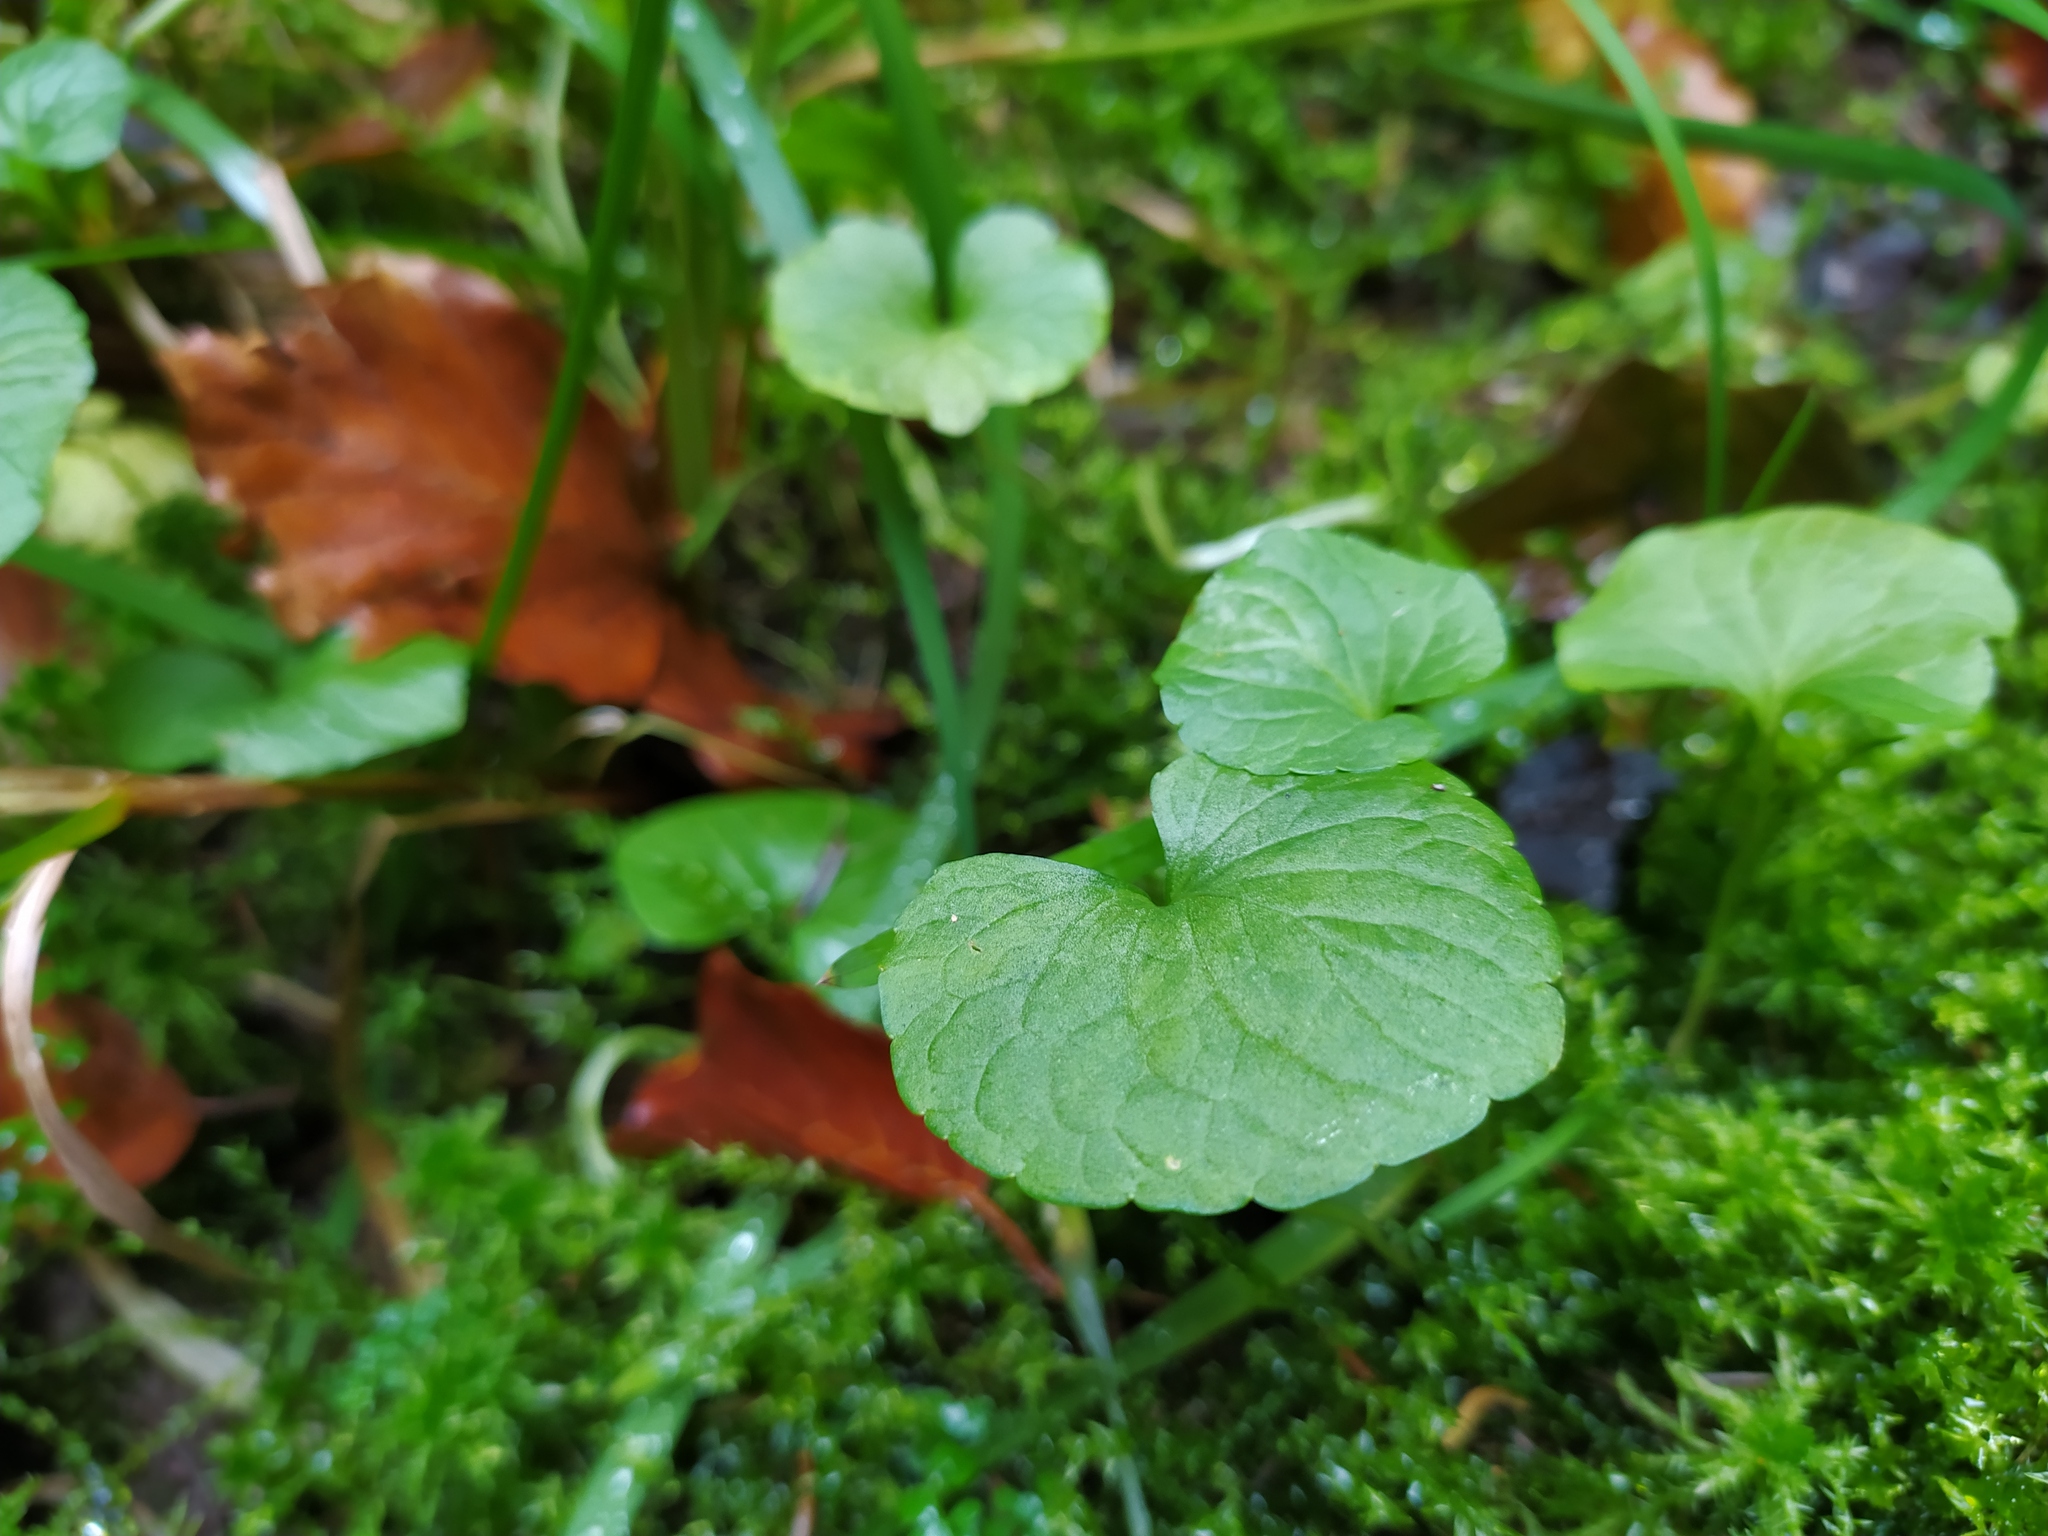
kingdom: Plantae
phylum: Tracheophyta
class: Magnoliopsida
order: Malpighiales
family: Violaceae
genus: Viola
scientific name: Viola palustris
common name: Marsh violet
